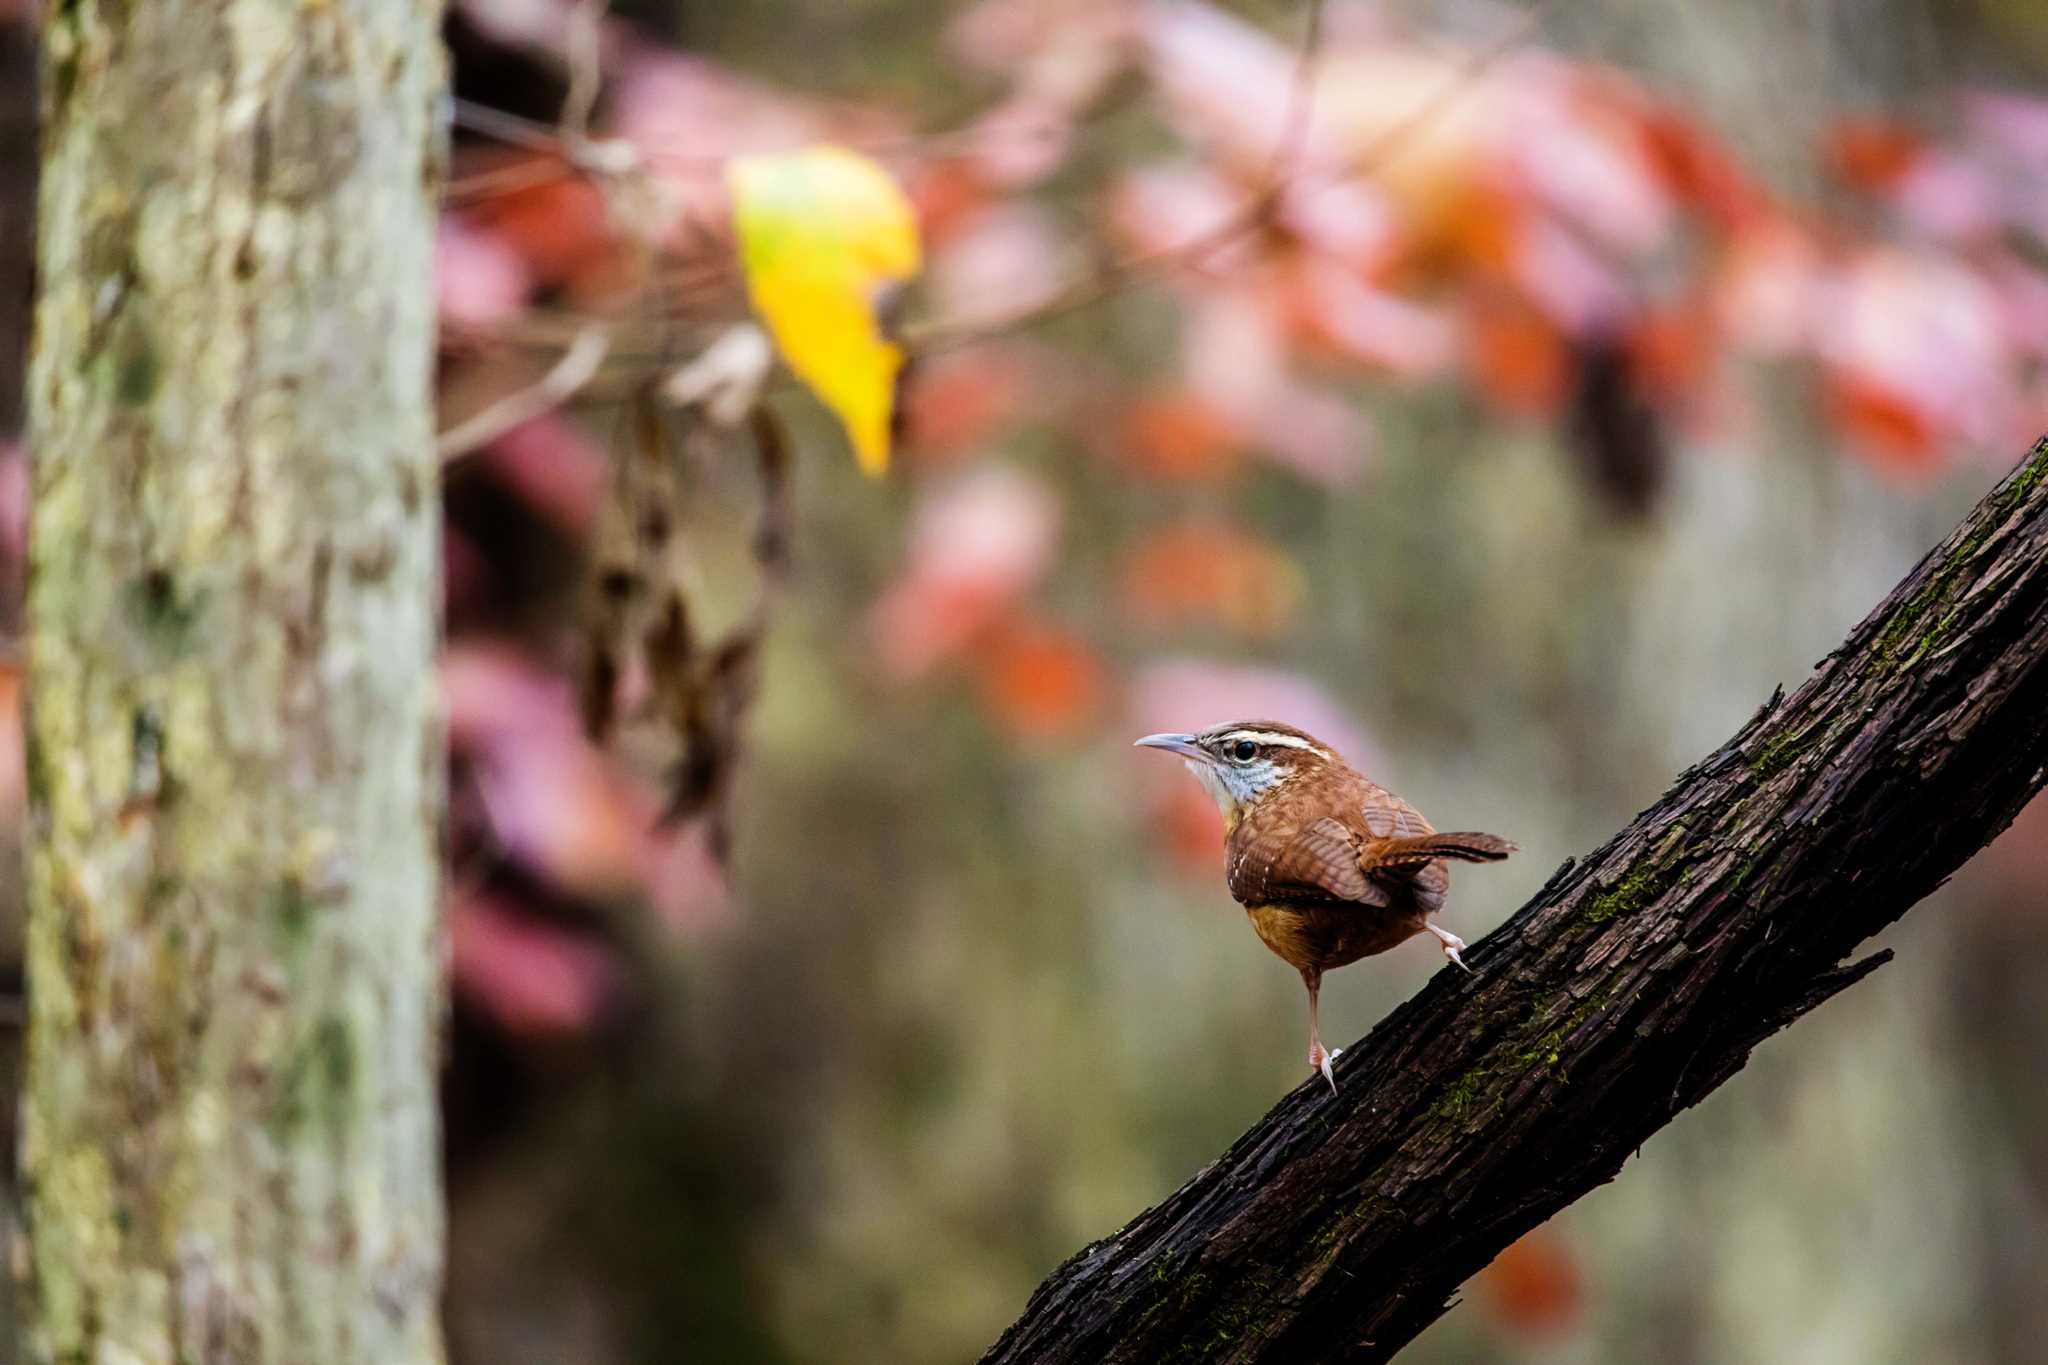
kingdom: Animalia
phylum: Chordata
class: Aves
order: Passeriformes
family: Troglodytidae
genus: Thryothorus
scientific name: Thryothorus ludovicianus
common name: Carolina wren
